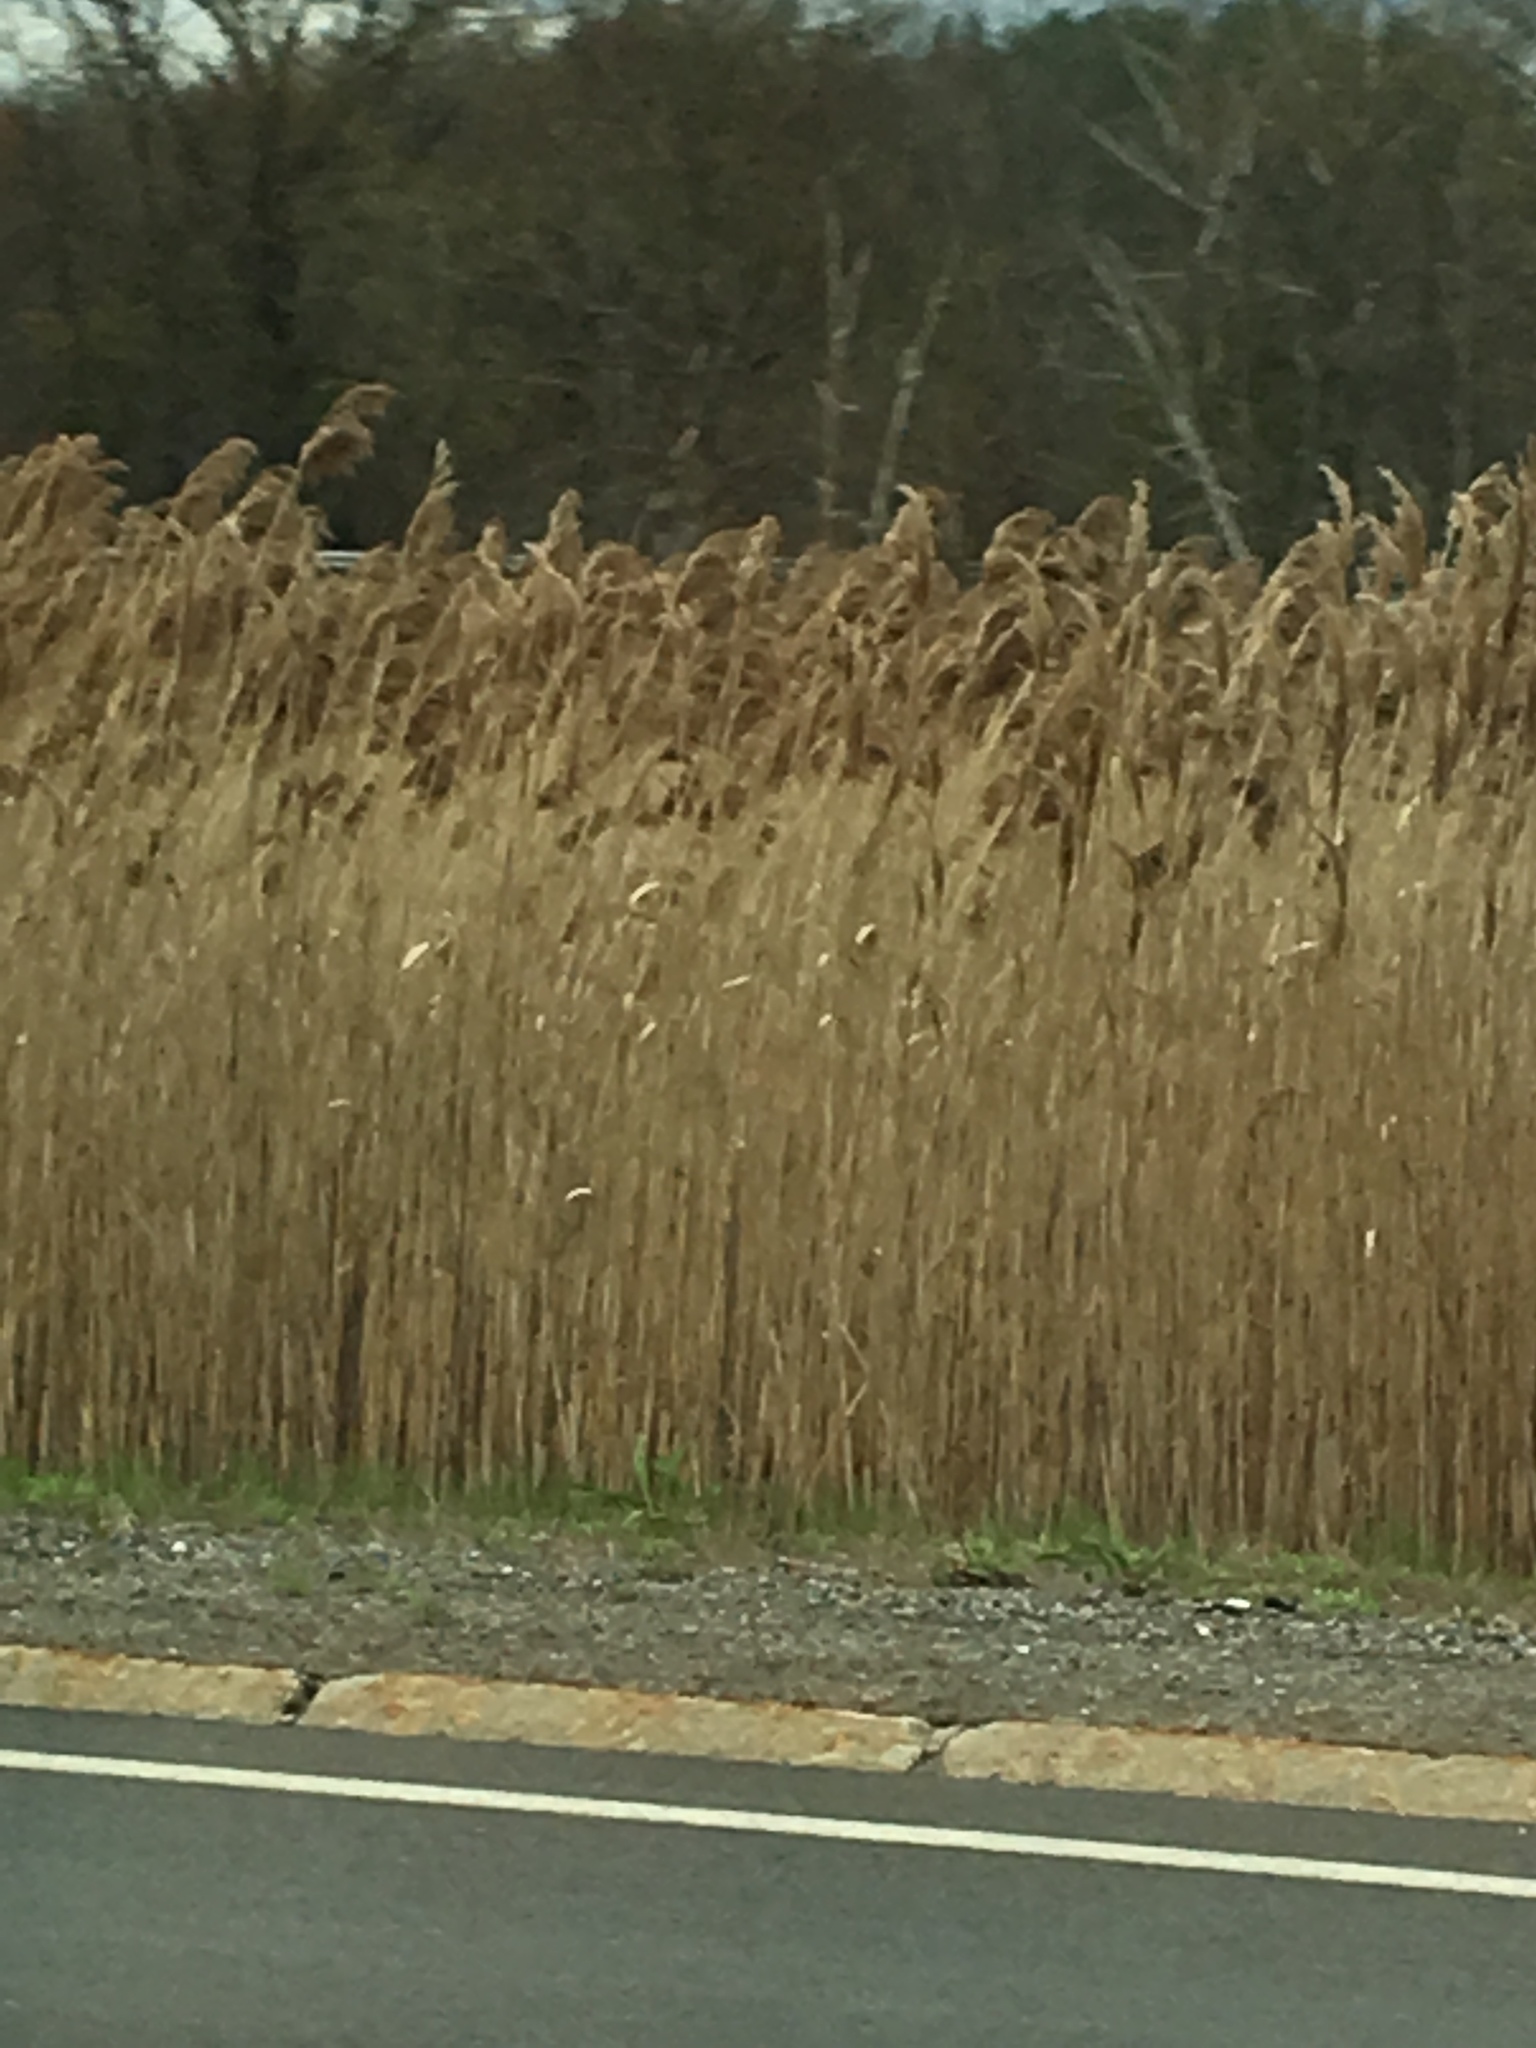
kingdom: Plantae
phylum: Tracheophyta
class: Liliopsida
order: Poales
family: Poaceae
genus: Phragmites
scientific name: Phragmites australis
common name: Common reed
